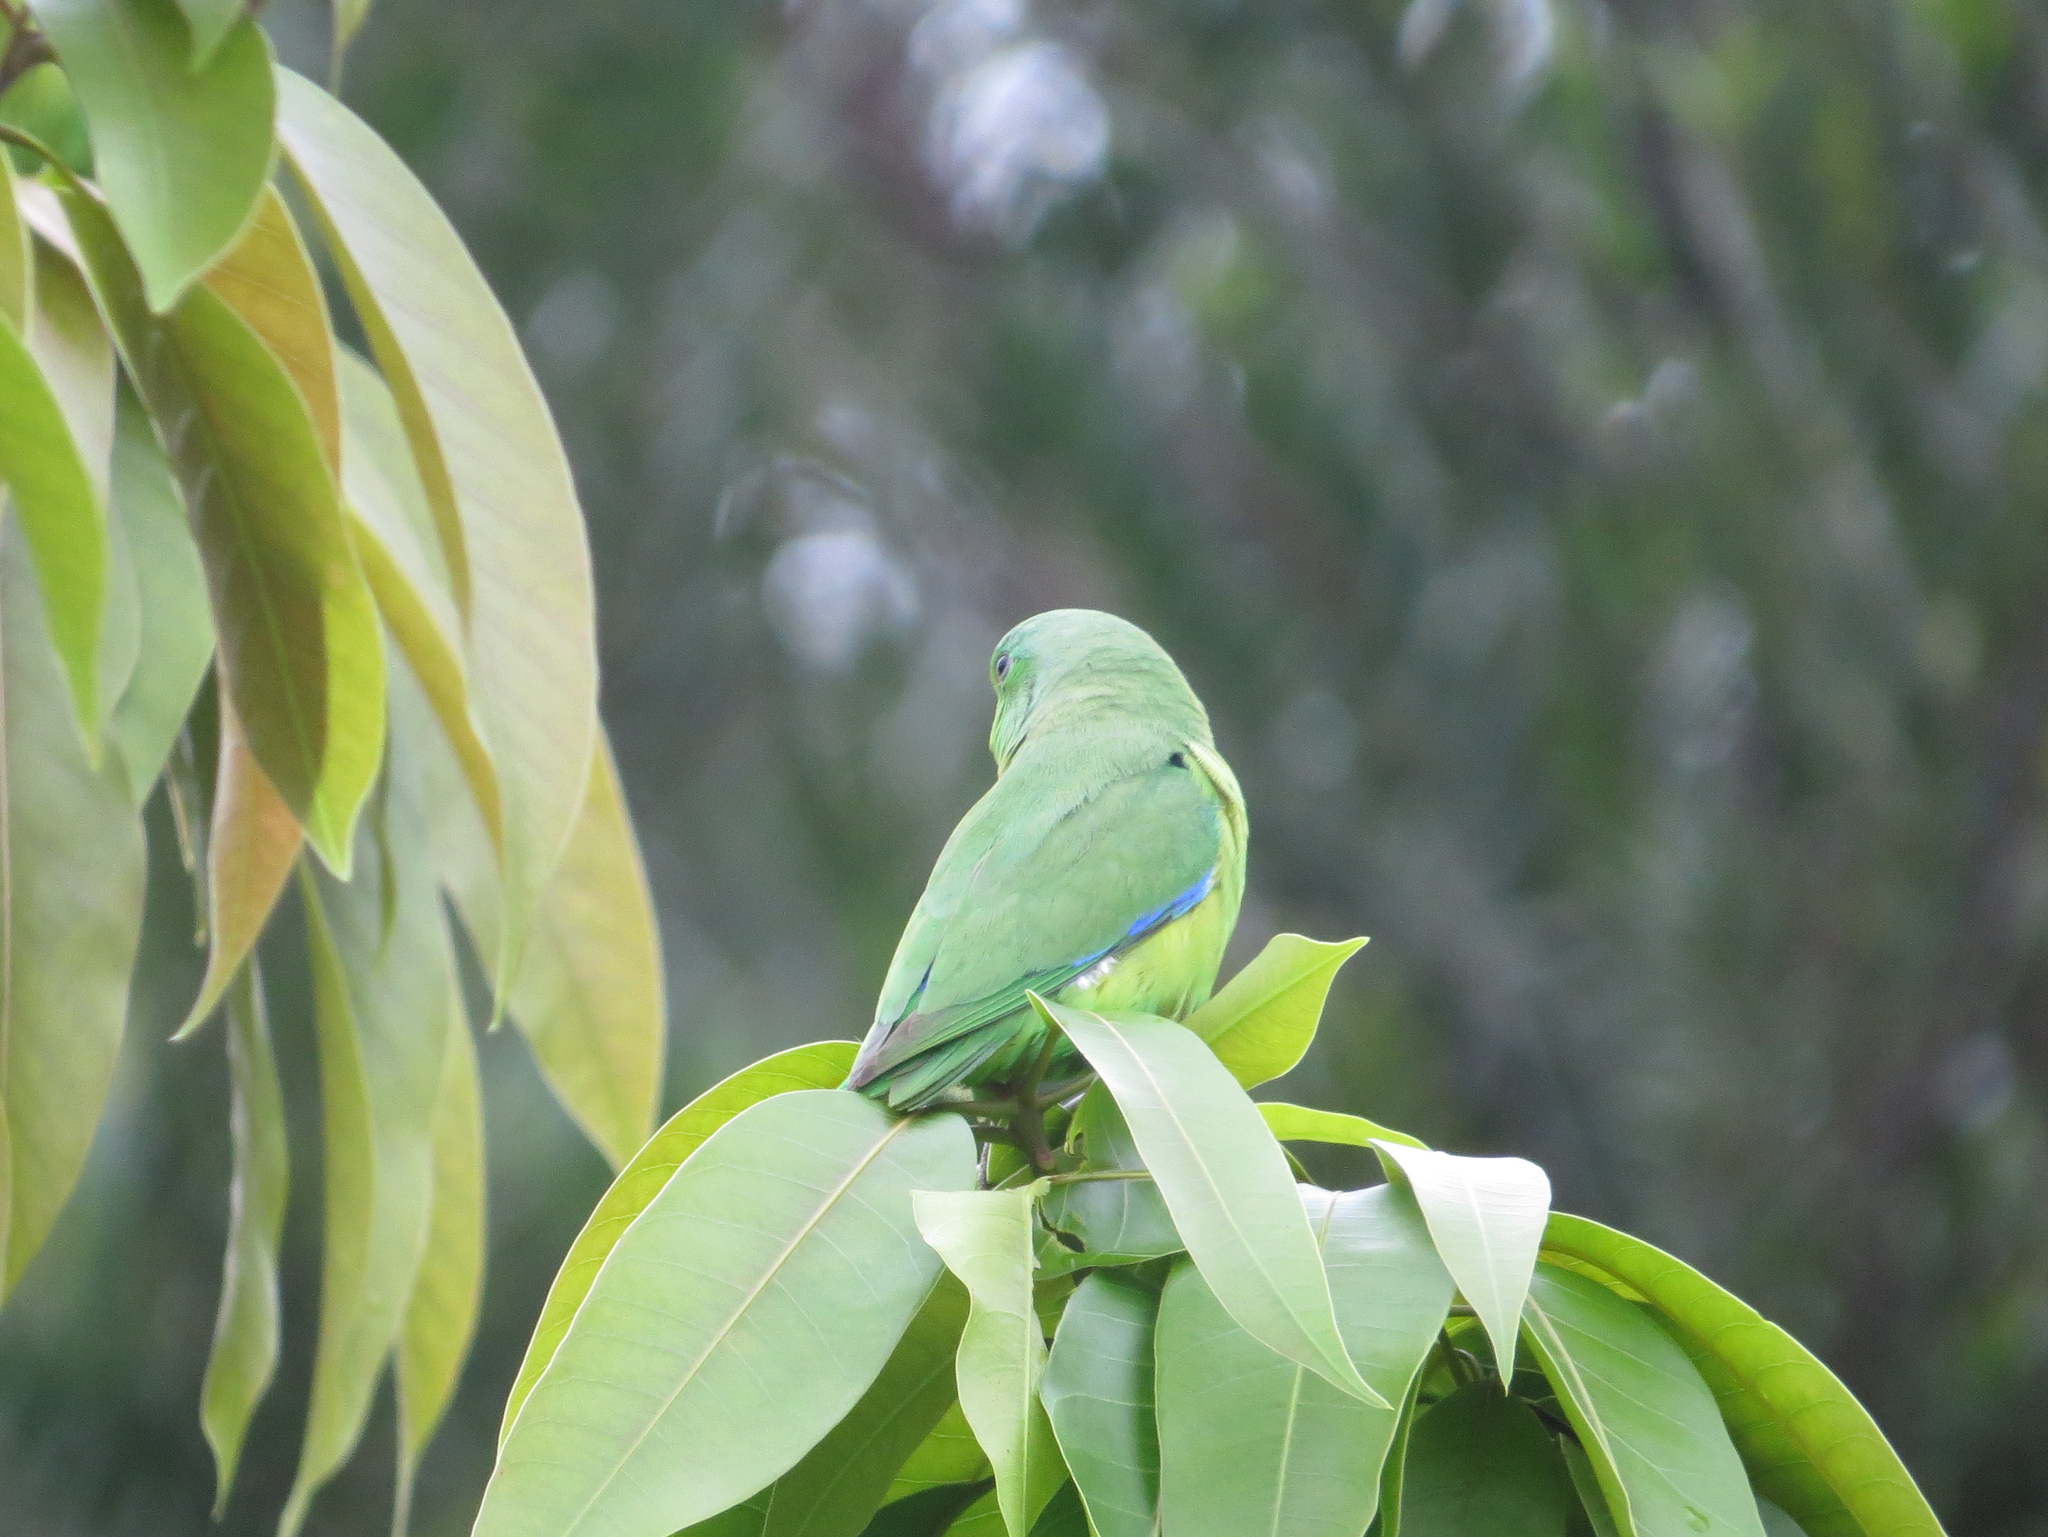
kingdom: Animalia
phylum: Chordata
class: Aves
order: Psittaciformes
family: Psittacidae
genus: Forpus
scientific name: Forpus xanthopterygius
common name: Blue-winged parrotlet
